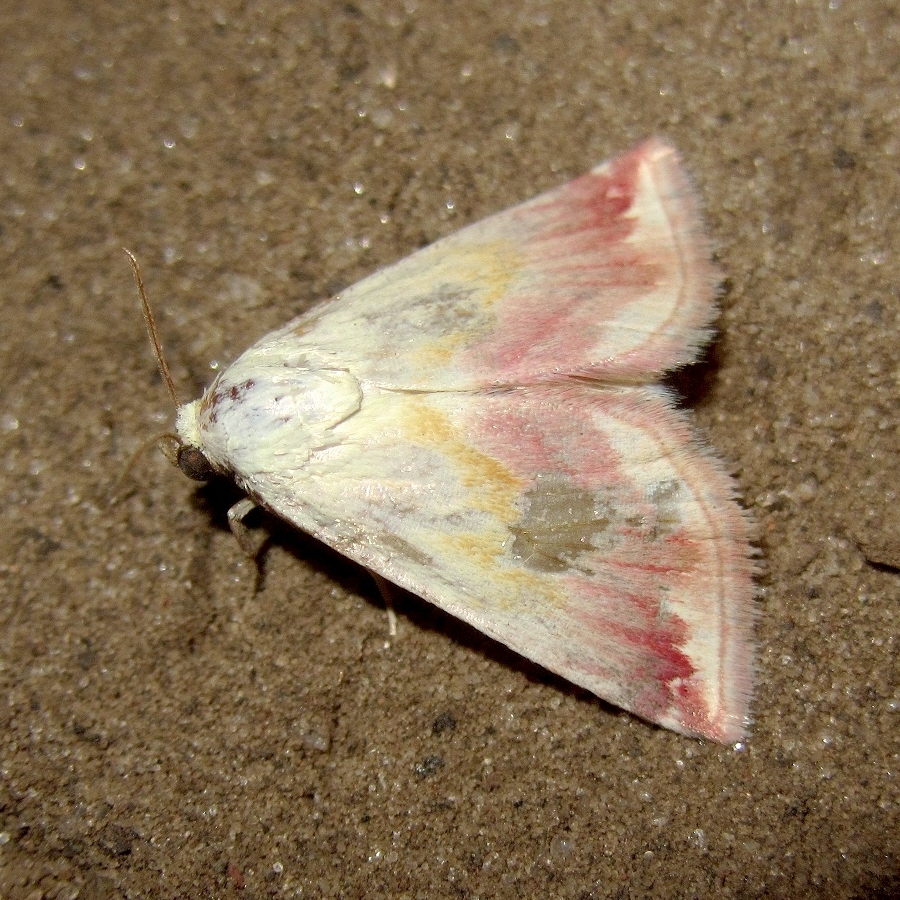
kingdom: Animalia
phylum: Arthropoda
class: Insecta
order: Lepidoptera
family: Noctuidae
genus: Eublemma
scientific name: Eublemma purpurina
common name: Beautiful marbled
